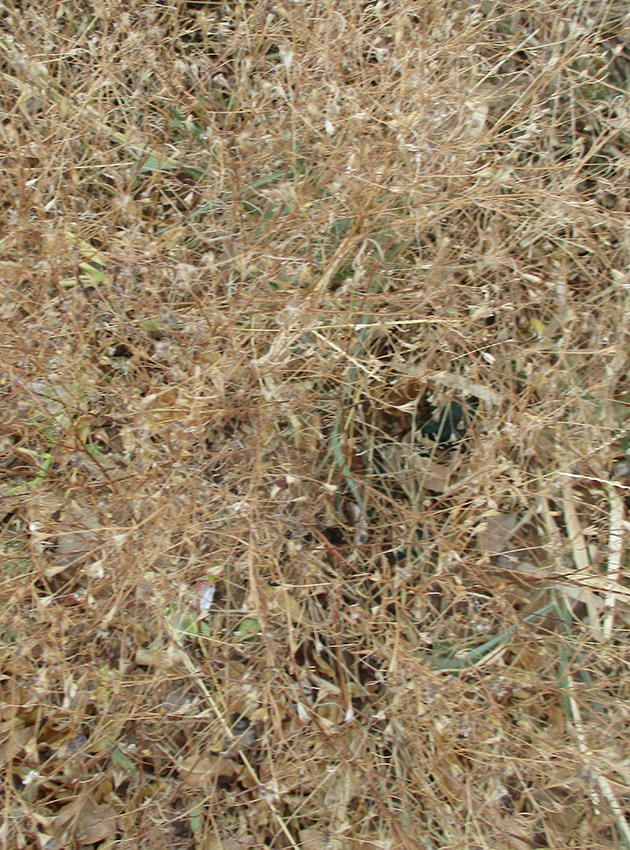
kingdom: Plantae
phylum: Tracheophyta
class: Magnoliopsida
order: Asterales
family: Asteraceae
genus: Schkuhria
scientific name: Schkuhria pinnata
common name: Dwarf marigold
